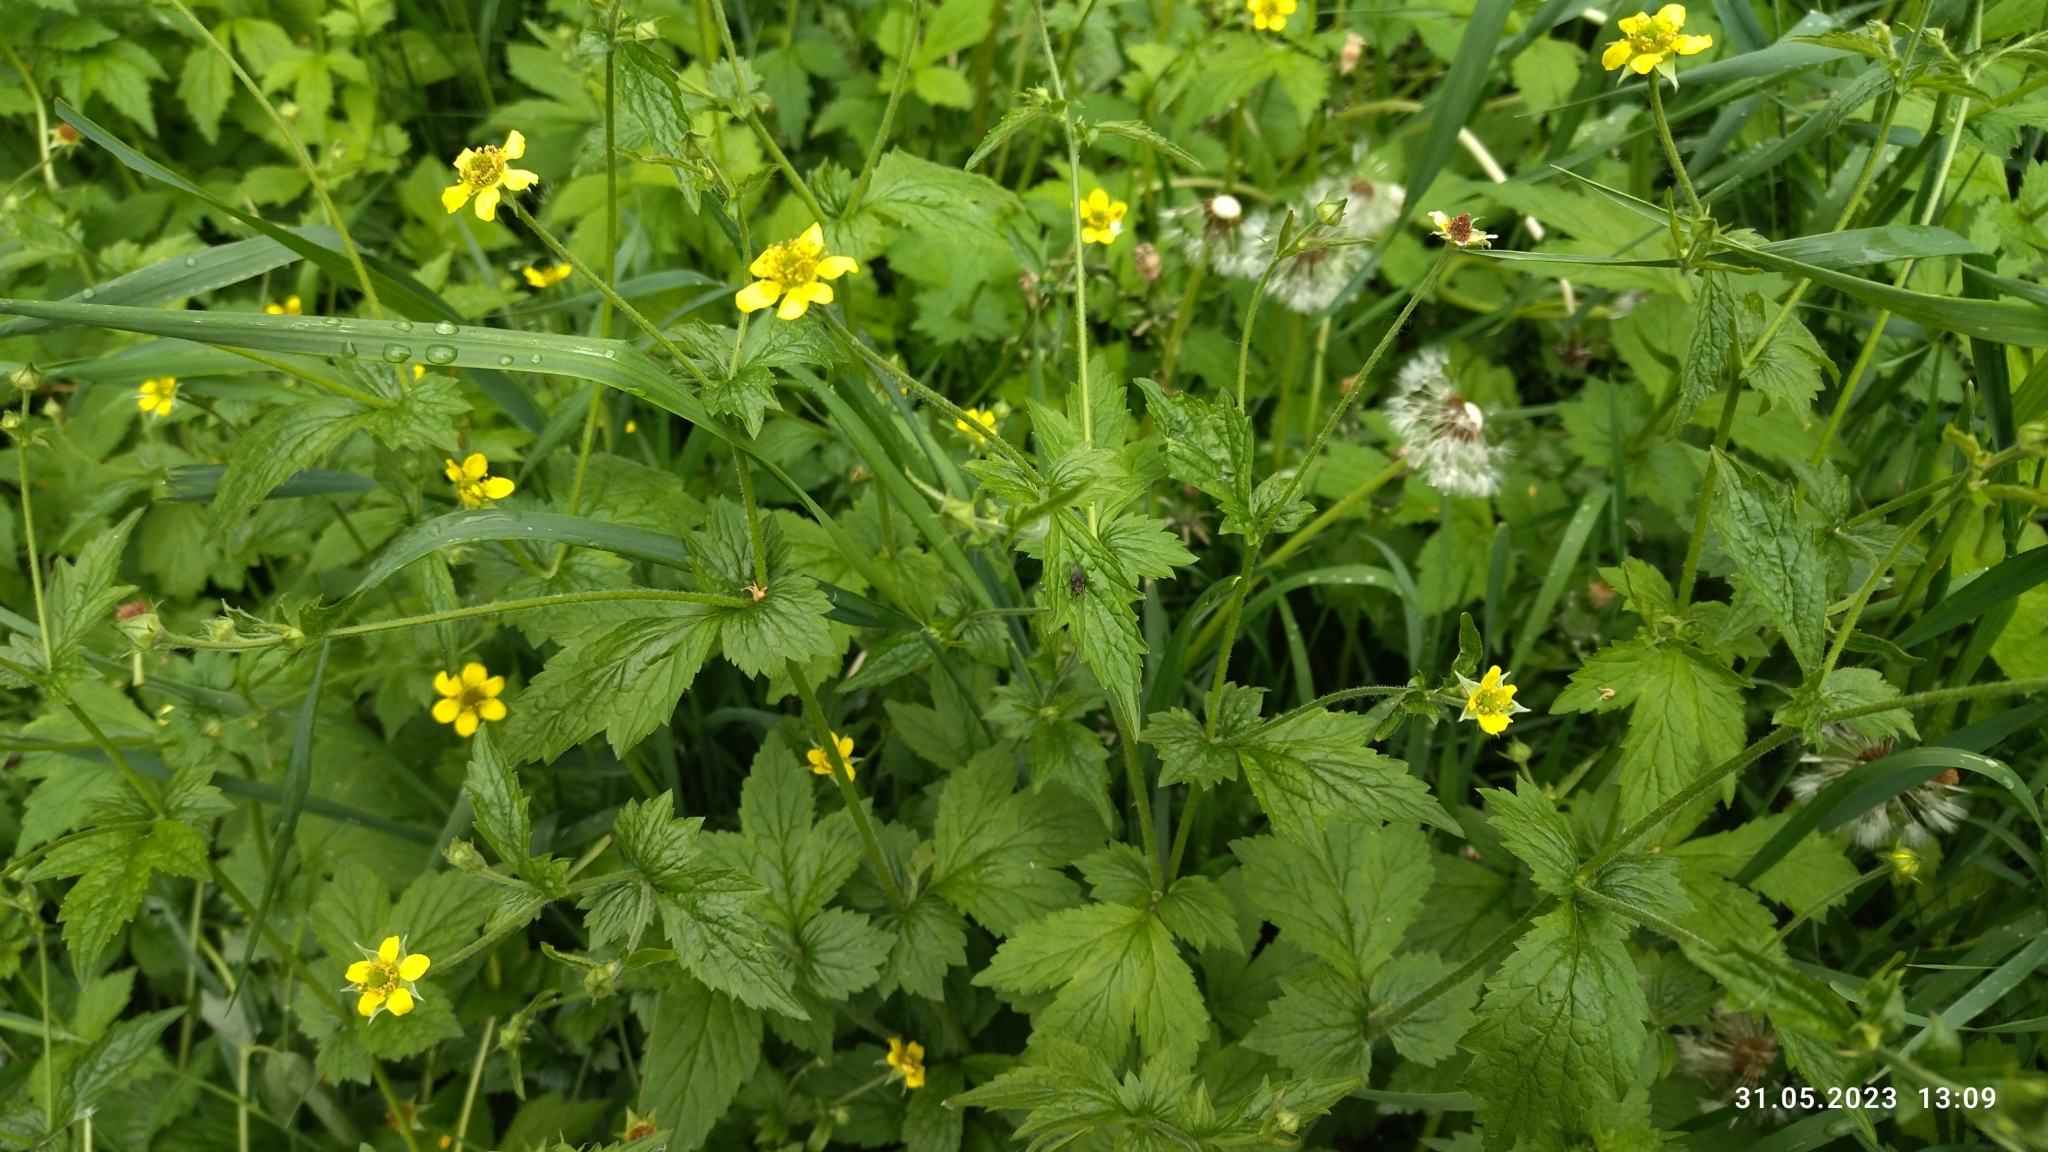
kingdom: Plantae
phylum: Tracheophyta
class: Magnoliopsida
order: Rosales
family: Rosaceae
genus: Geum
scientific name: Geum urbanum
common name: Wood avens
